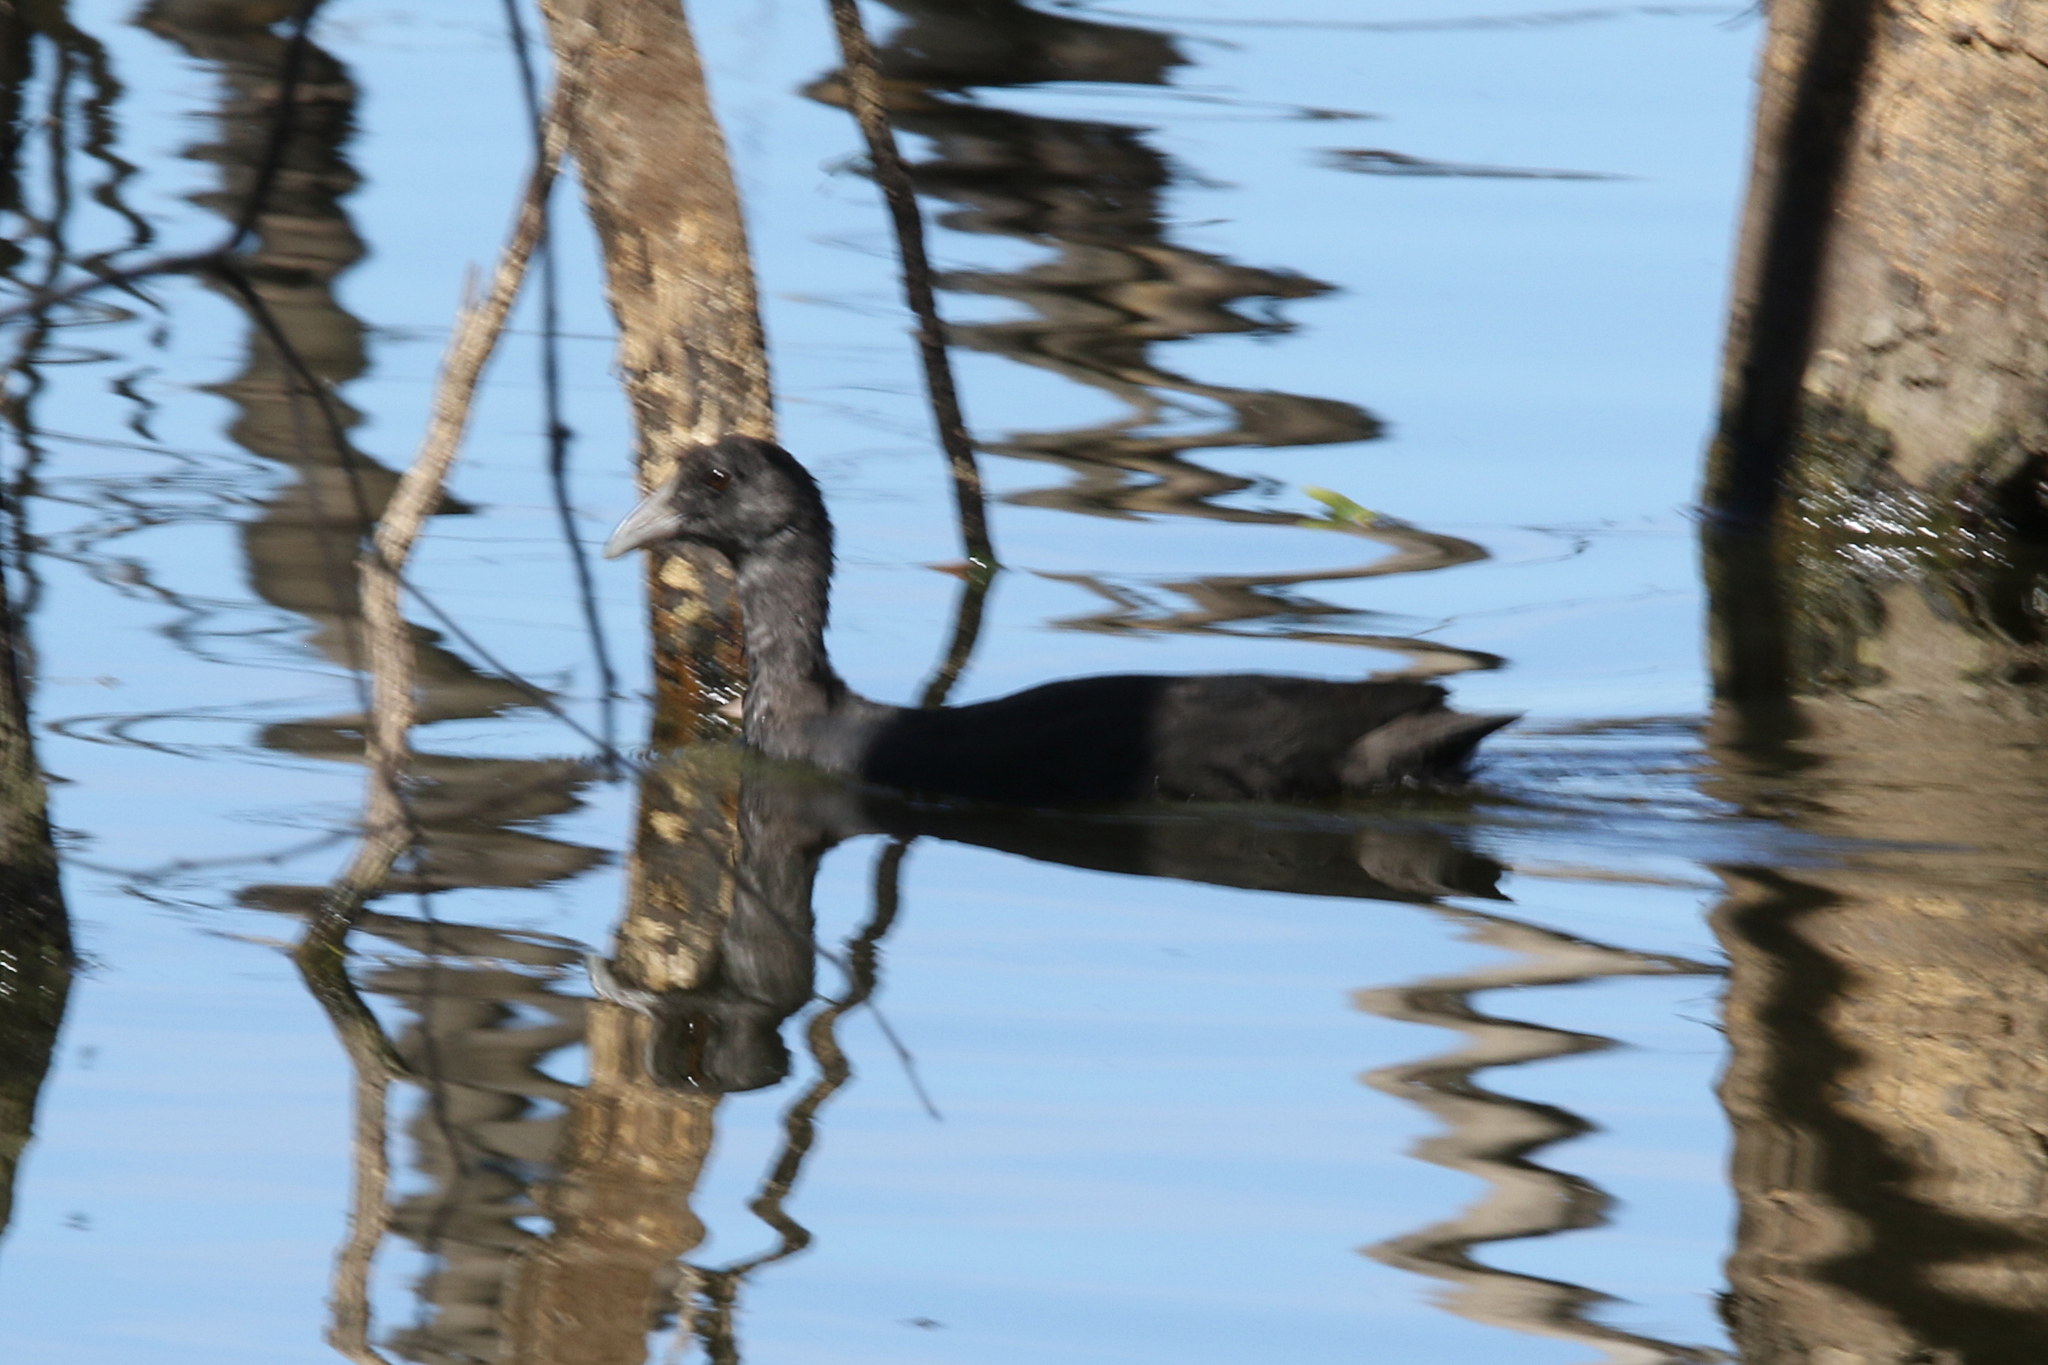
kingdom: Animalia
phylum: Chordata
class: Aves
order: Gruiformes
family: Rallidae
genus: Fulica
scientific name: Fulica atra
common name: Eurasian coot
